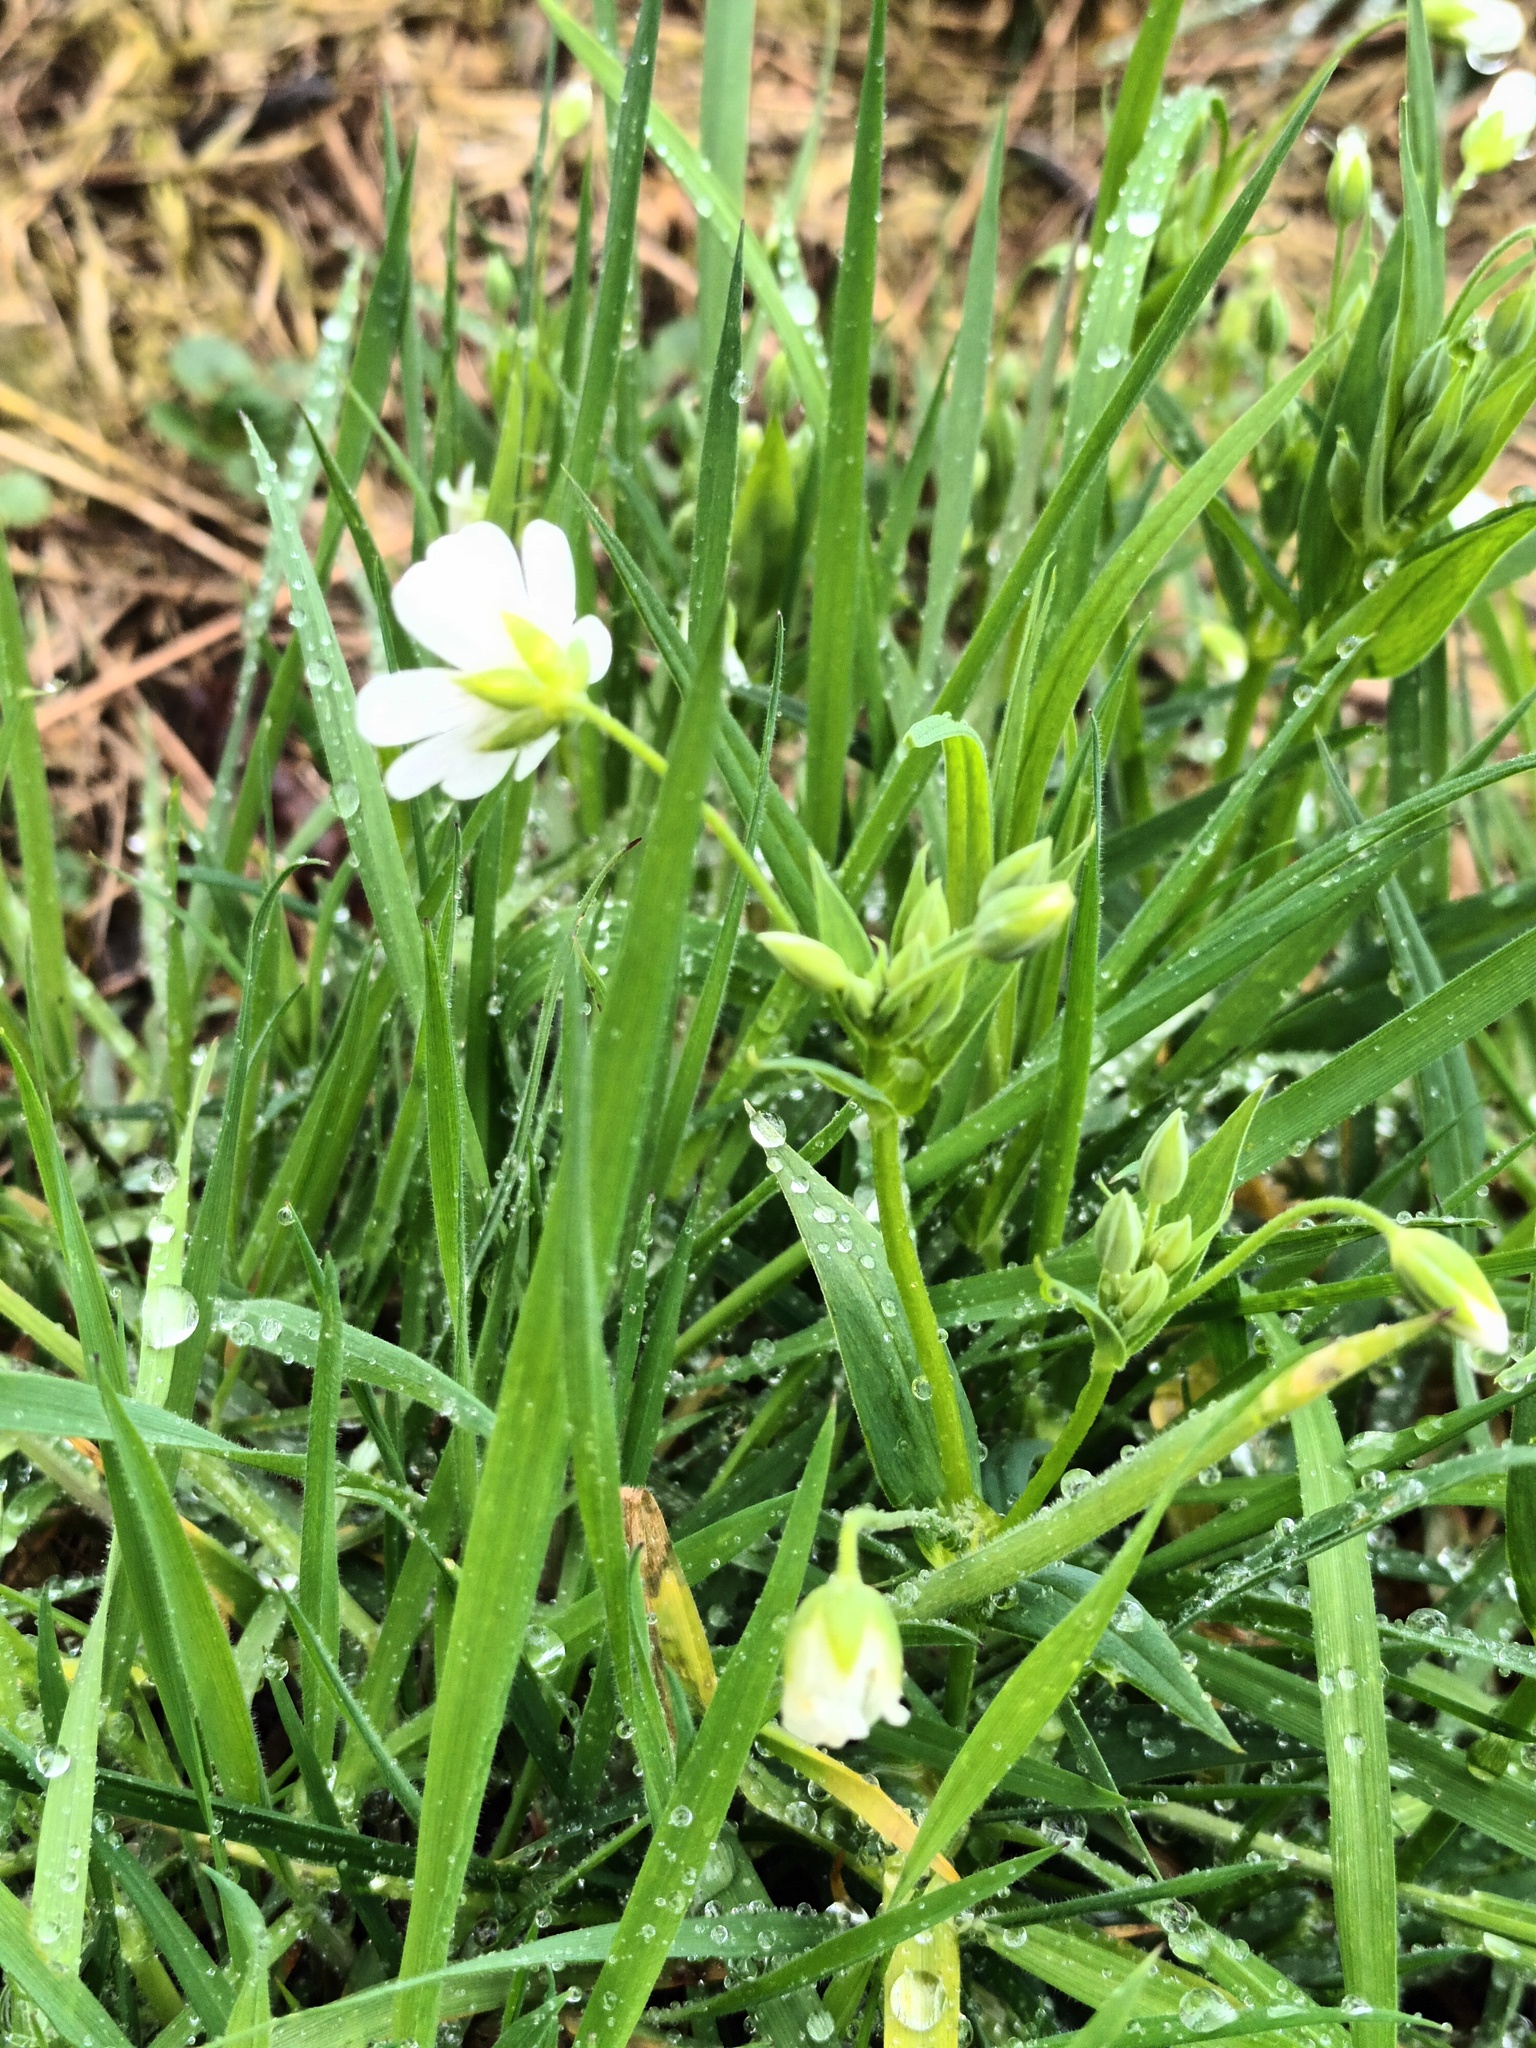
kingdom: Plantae
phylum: Tracheophyta
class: Magnoliopsida
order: Caryophyllales
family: Caryophyllaceae
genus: Rabelera
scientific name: Rabelera holostea
